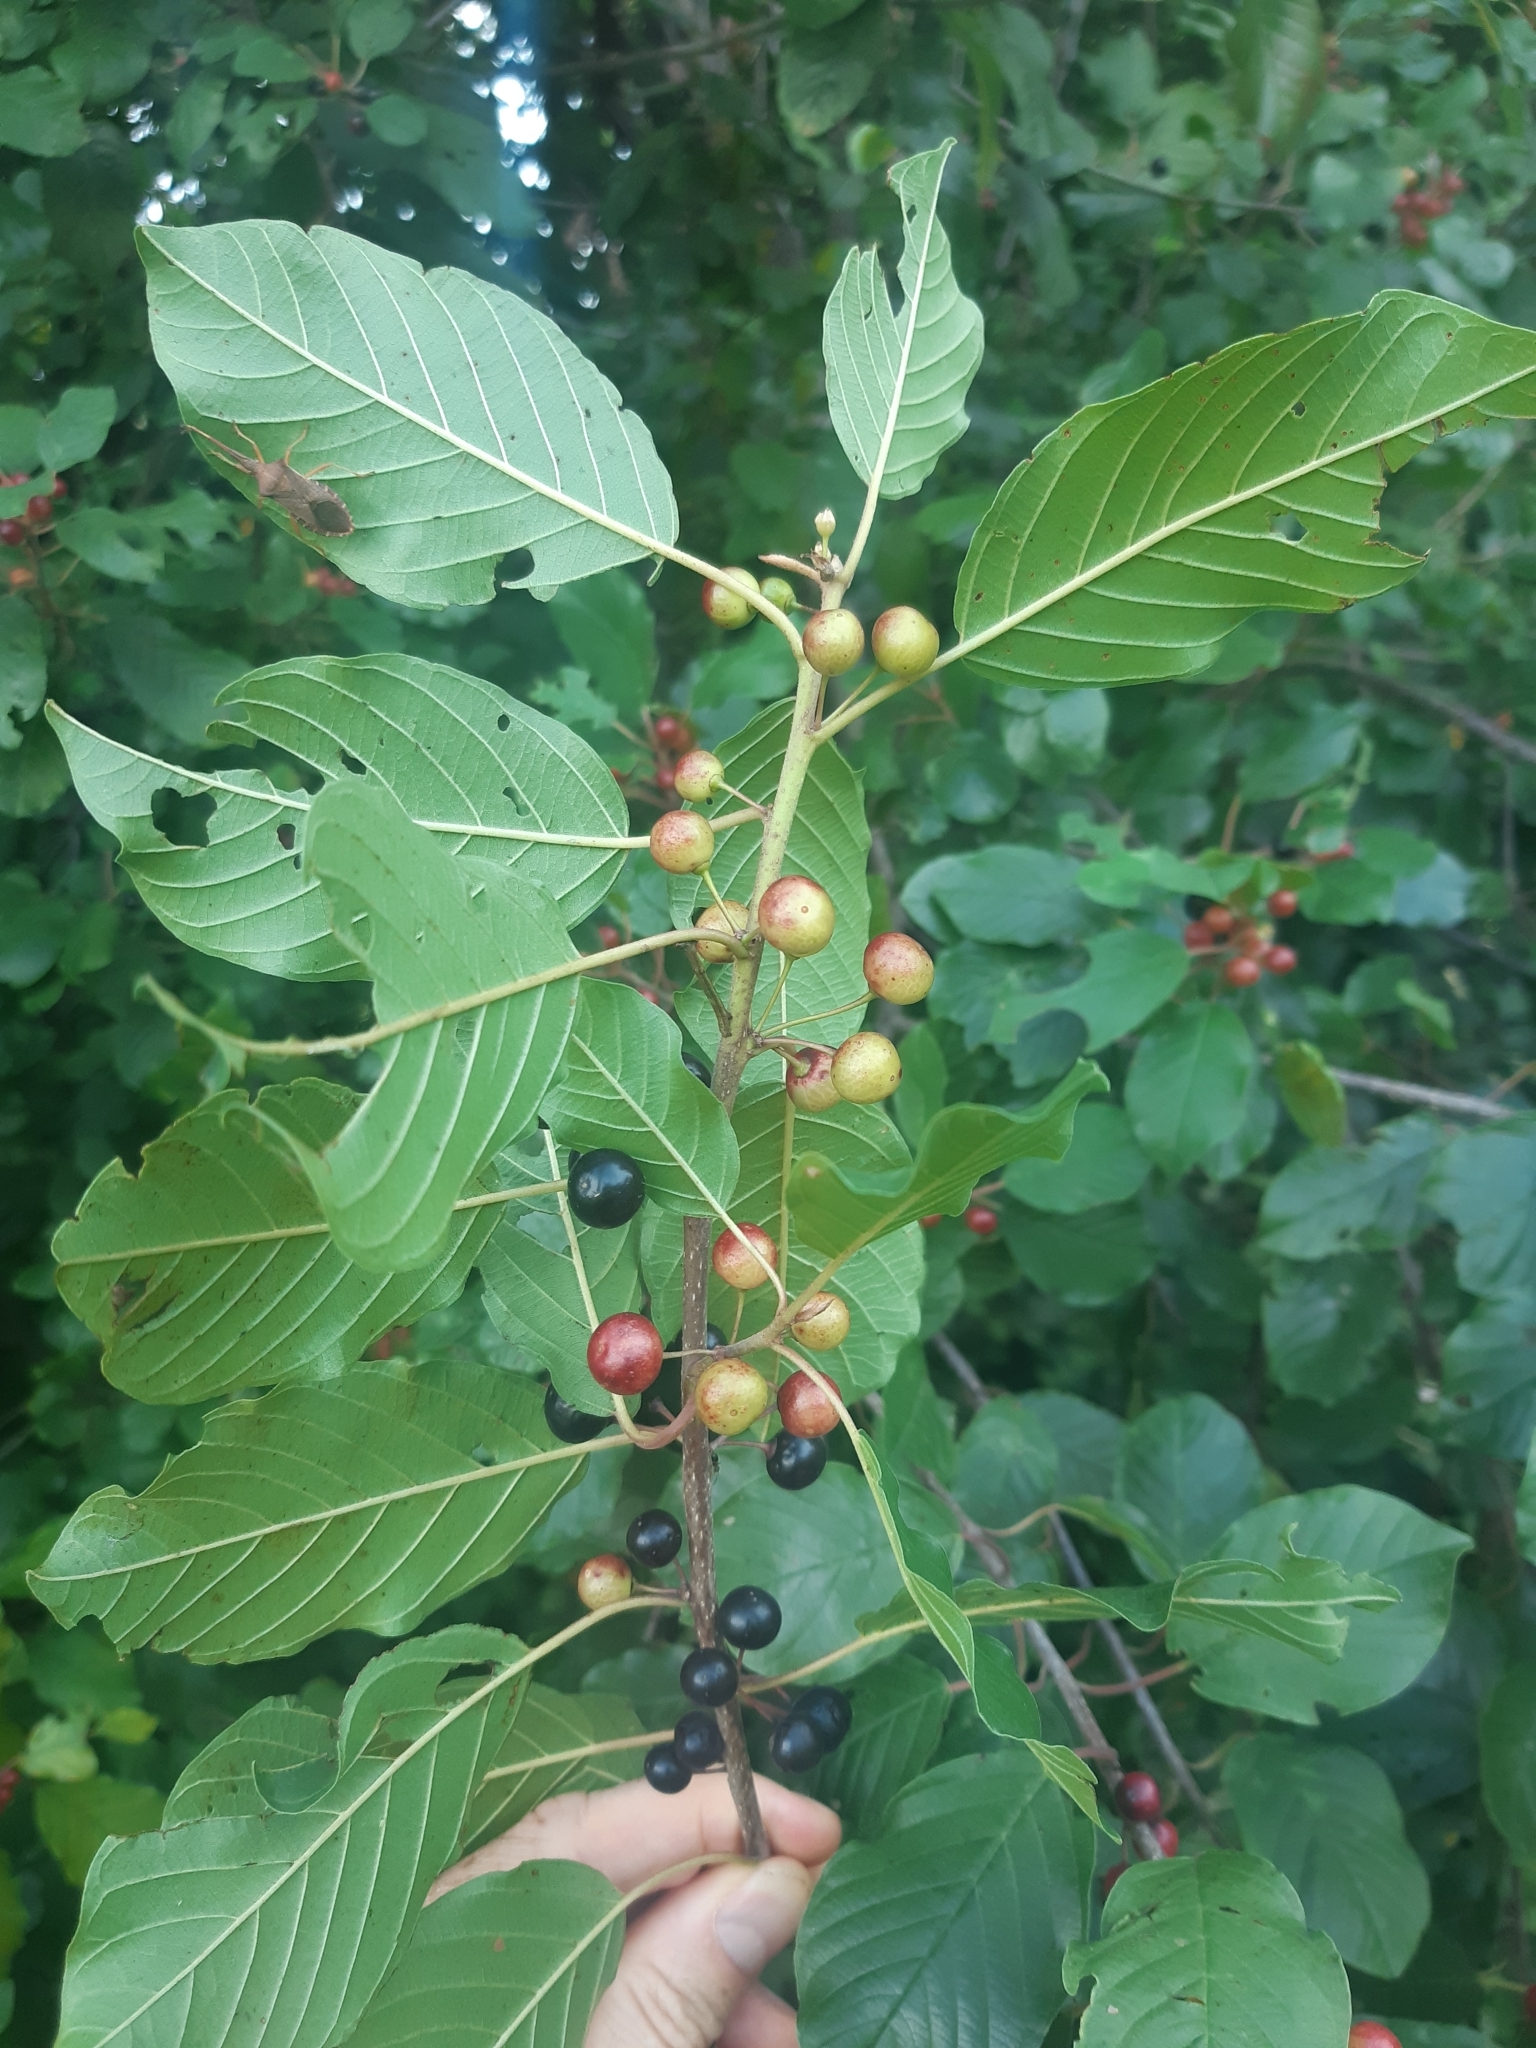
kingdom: Plantae
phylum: Tracheophyta
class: Magnoliopsida
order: Rosales
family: Rhamnaceae
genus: Frangula
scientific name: Frangula alnus
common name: Alder buckthorn
